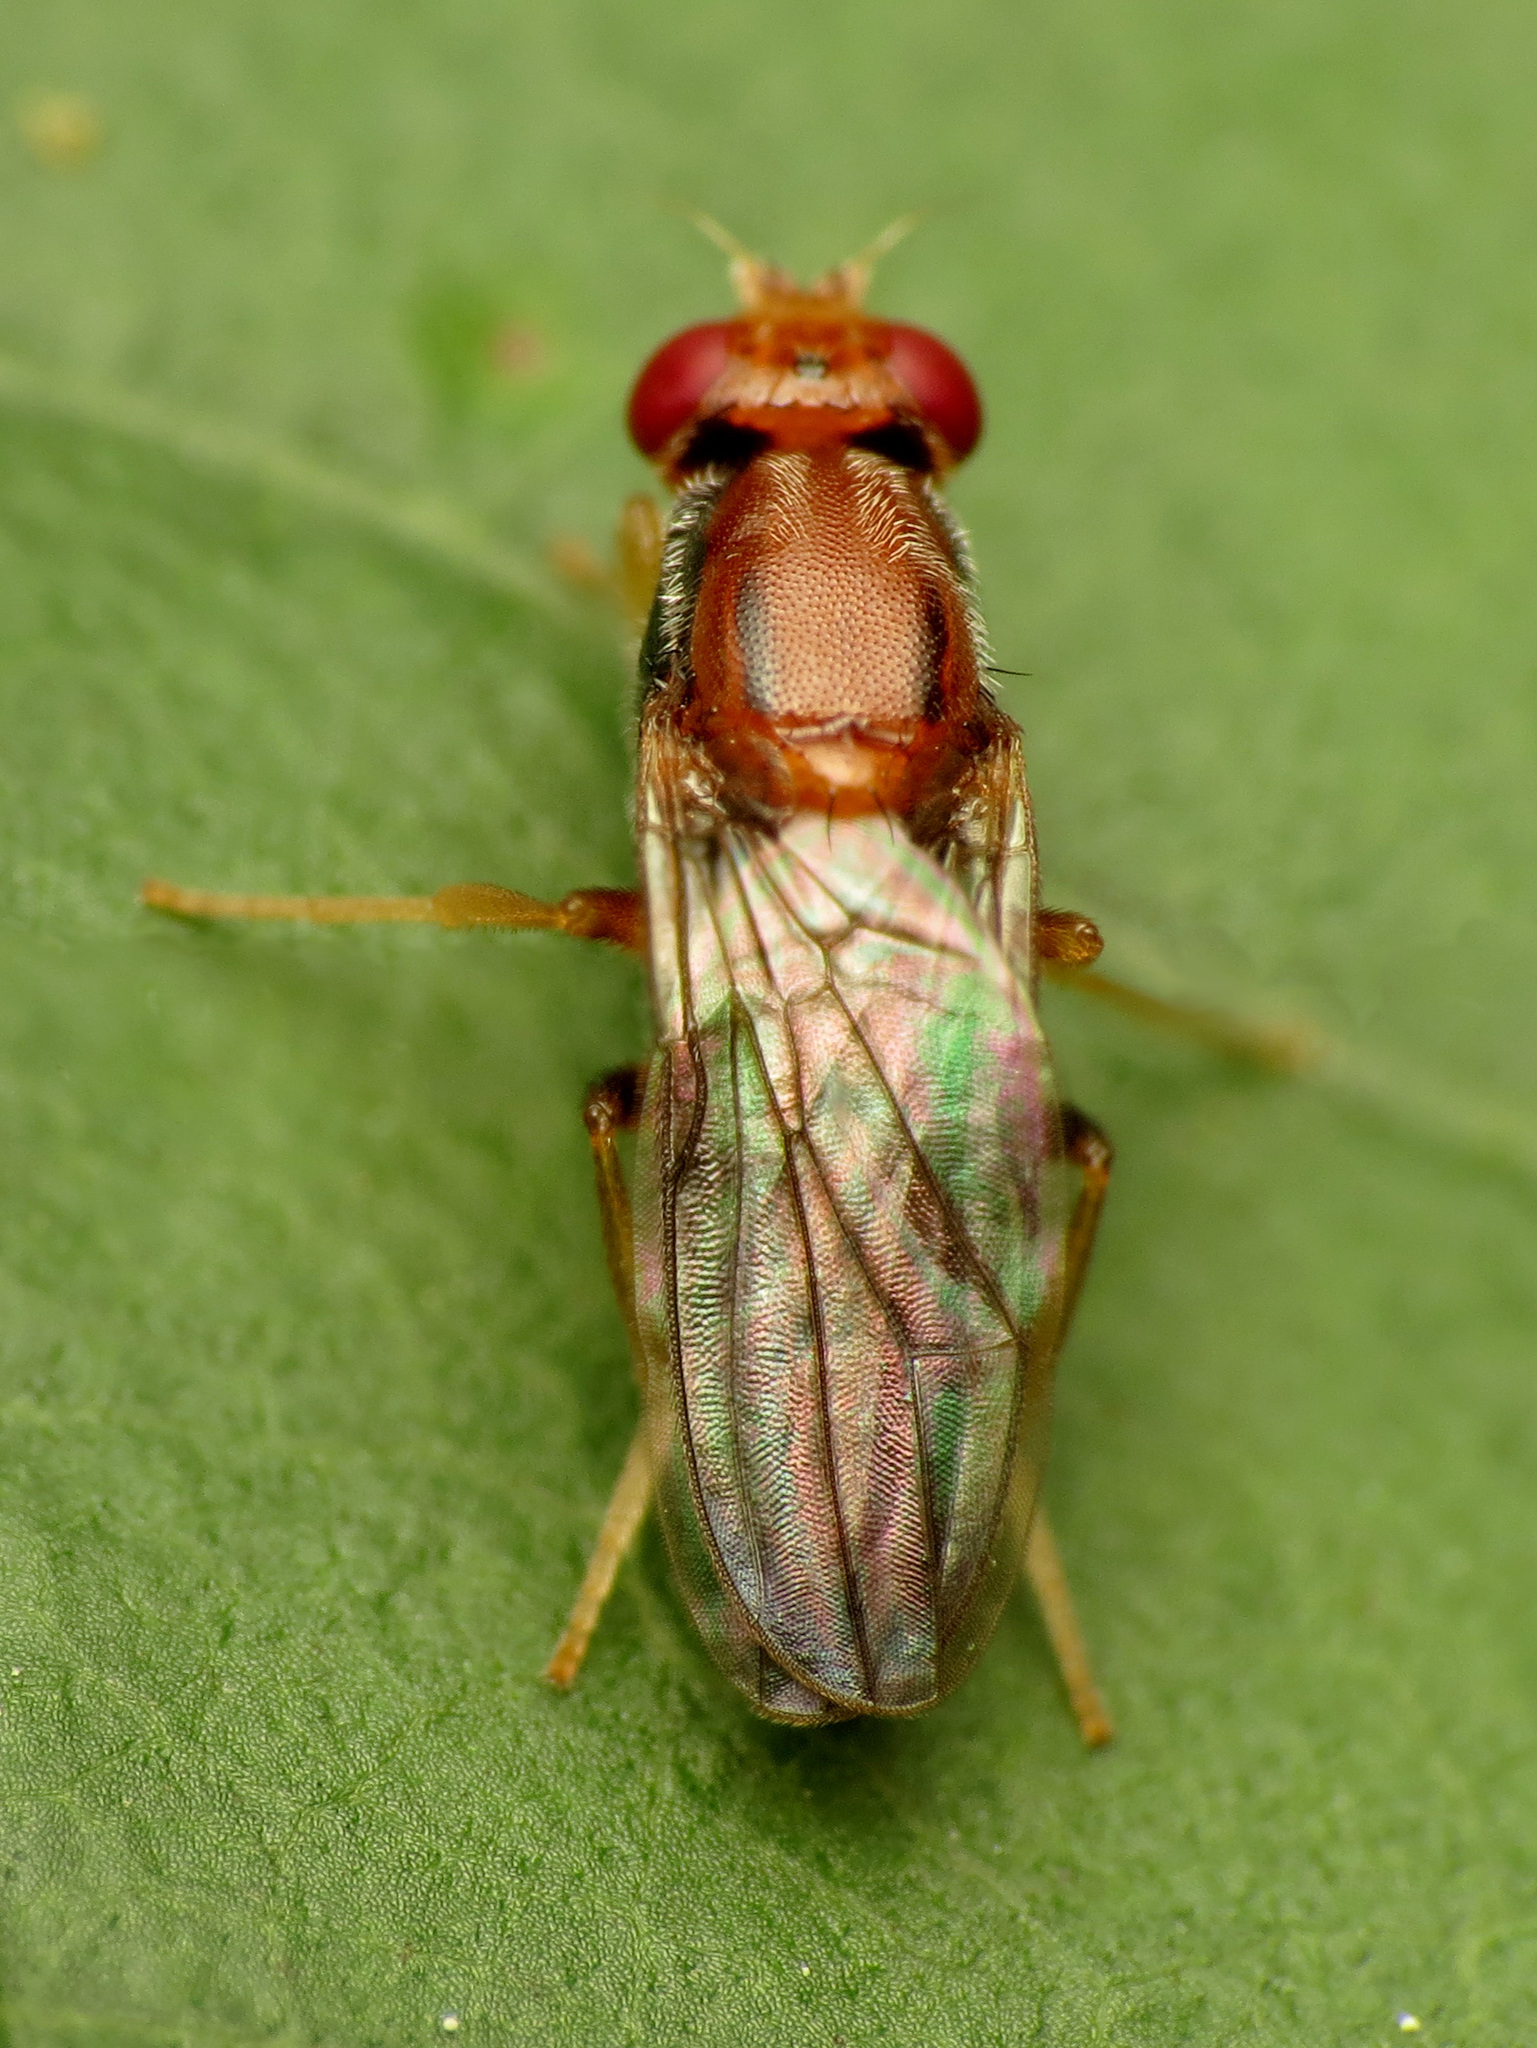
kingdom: Animalia
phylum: Arthropoda
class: Insecta
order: Diptera
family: Psilidae
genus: Chyliza
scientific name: Chyliza apicalis
